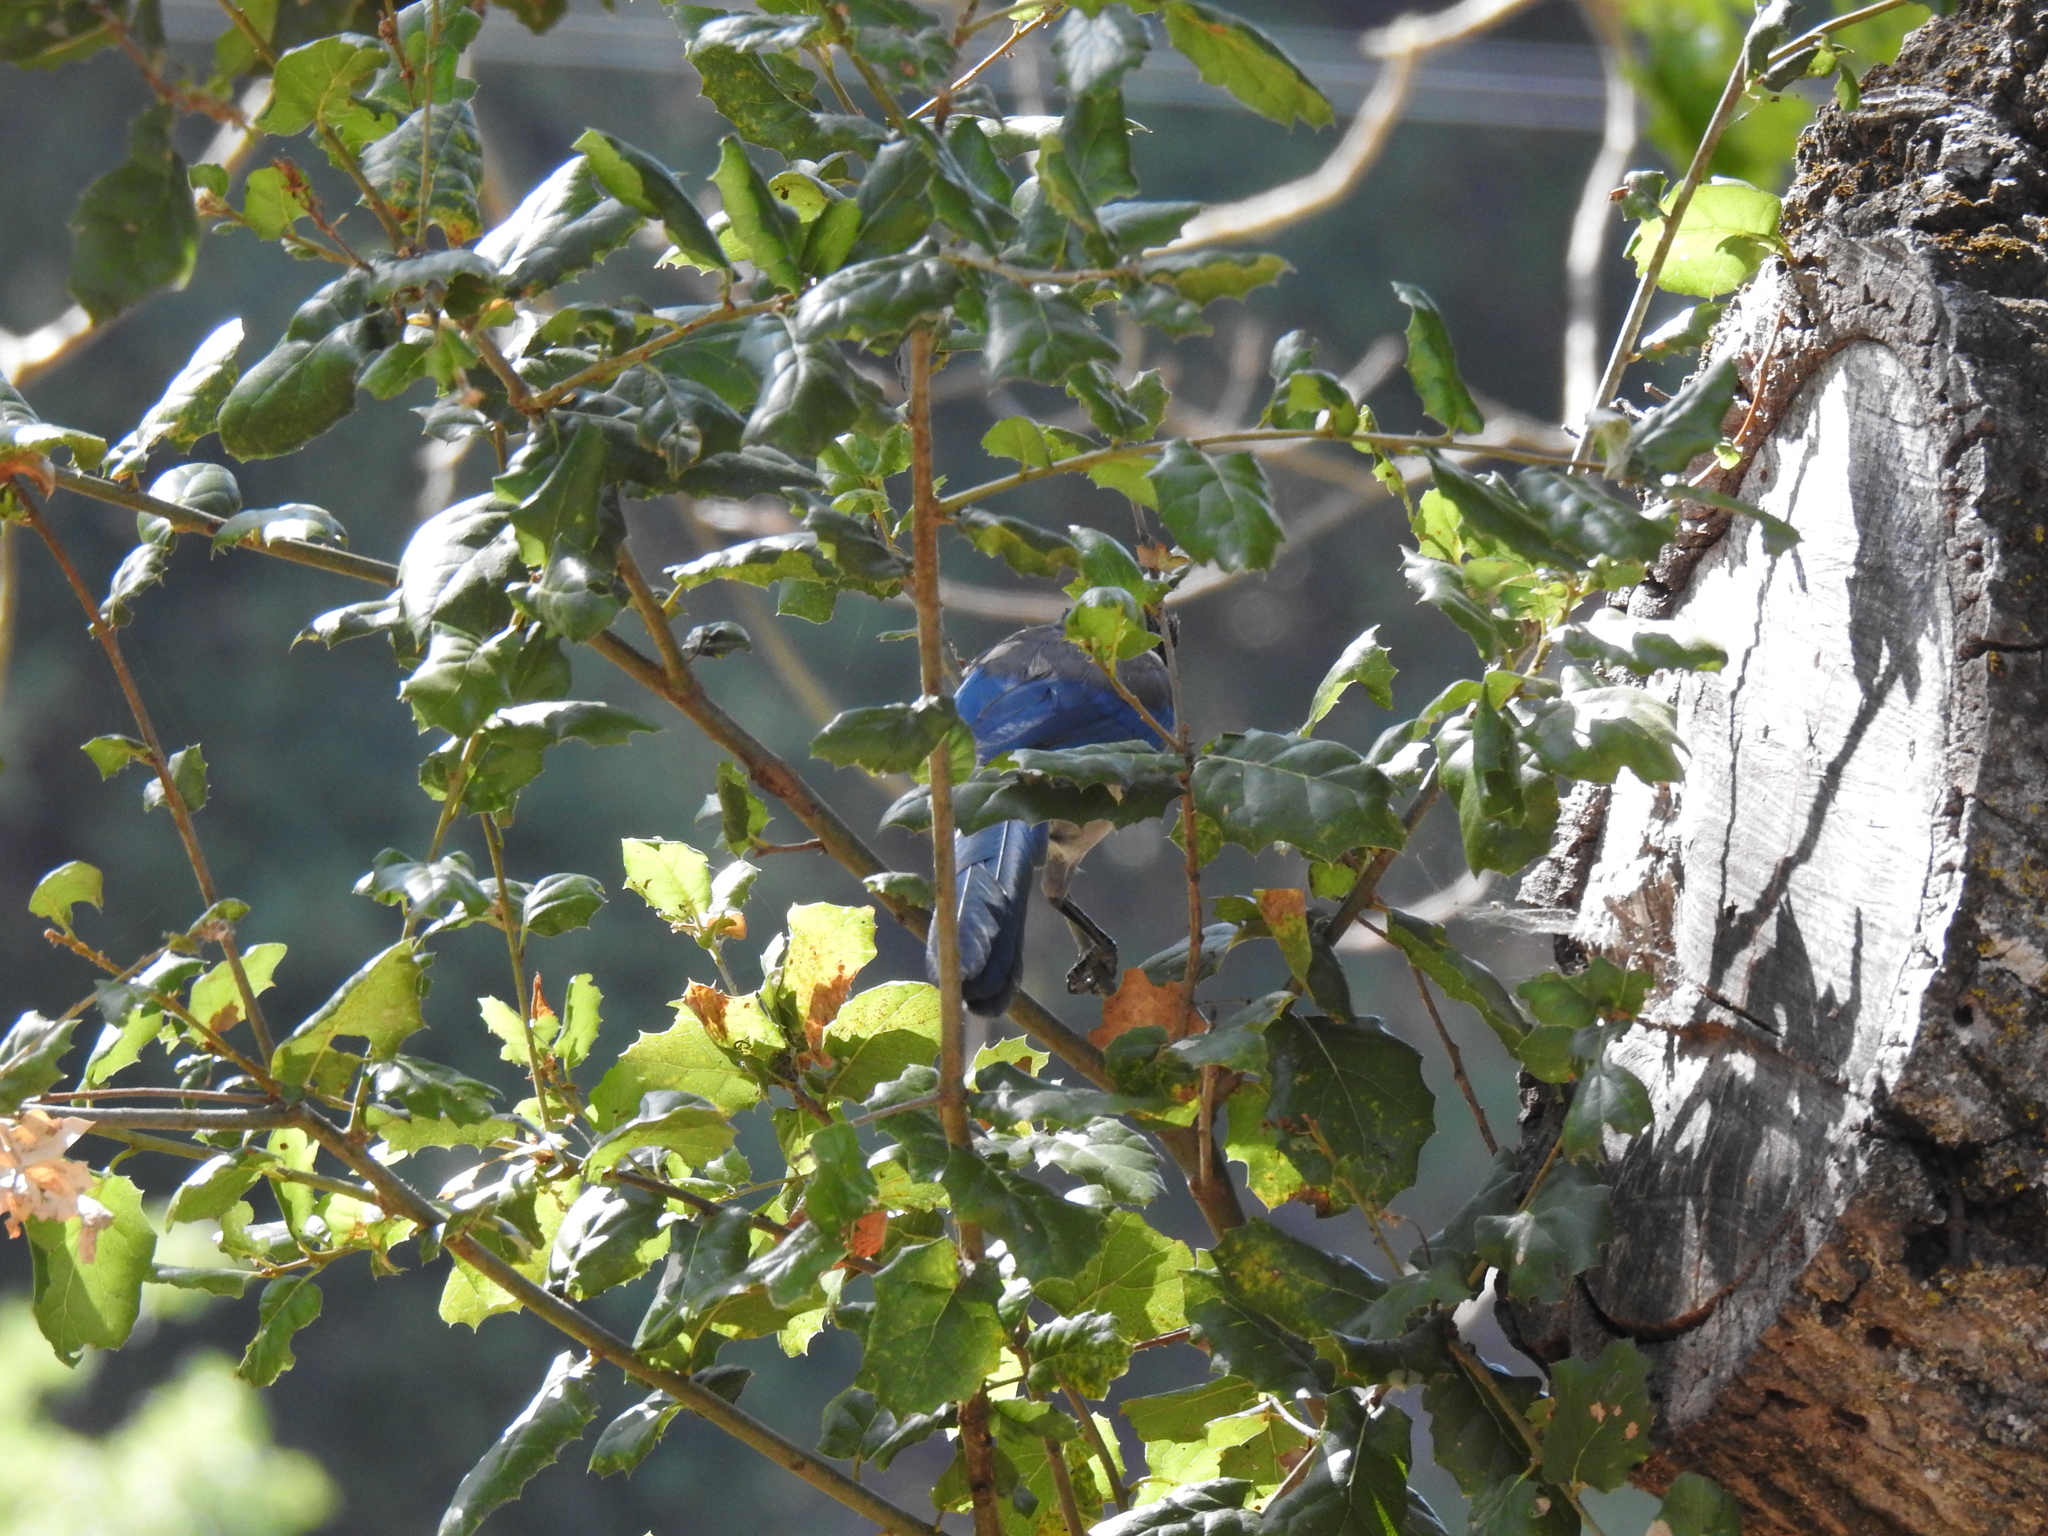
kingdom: Animalia
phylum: Chordata
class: Aves
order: Passeriformes
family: Corvidae
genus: Aphelocoma
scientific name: Aphelocoma californica
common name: California scrub-jay
